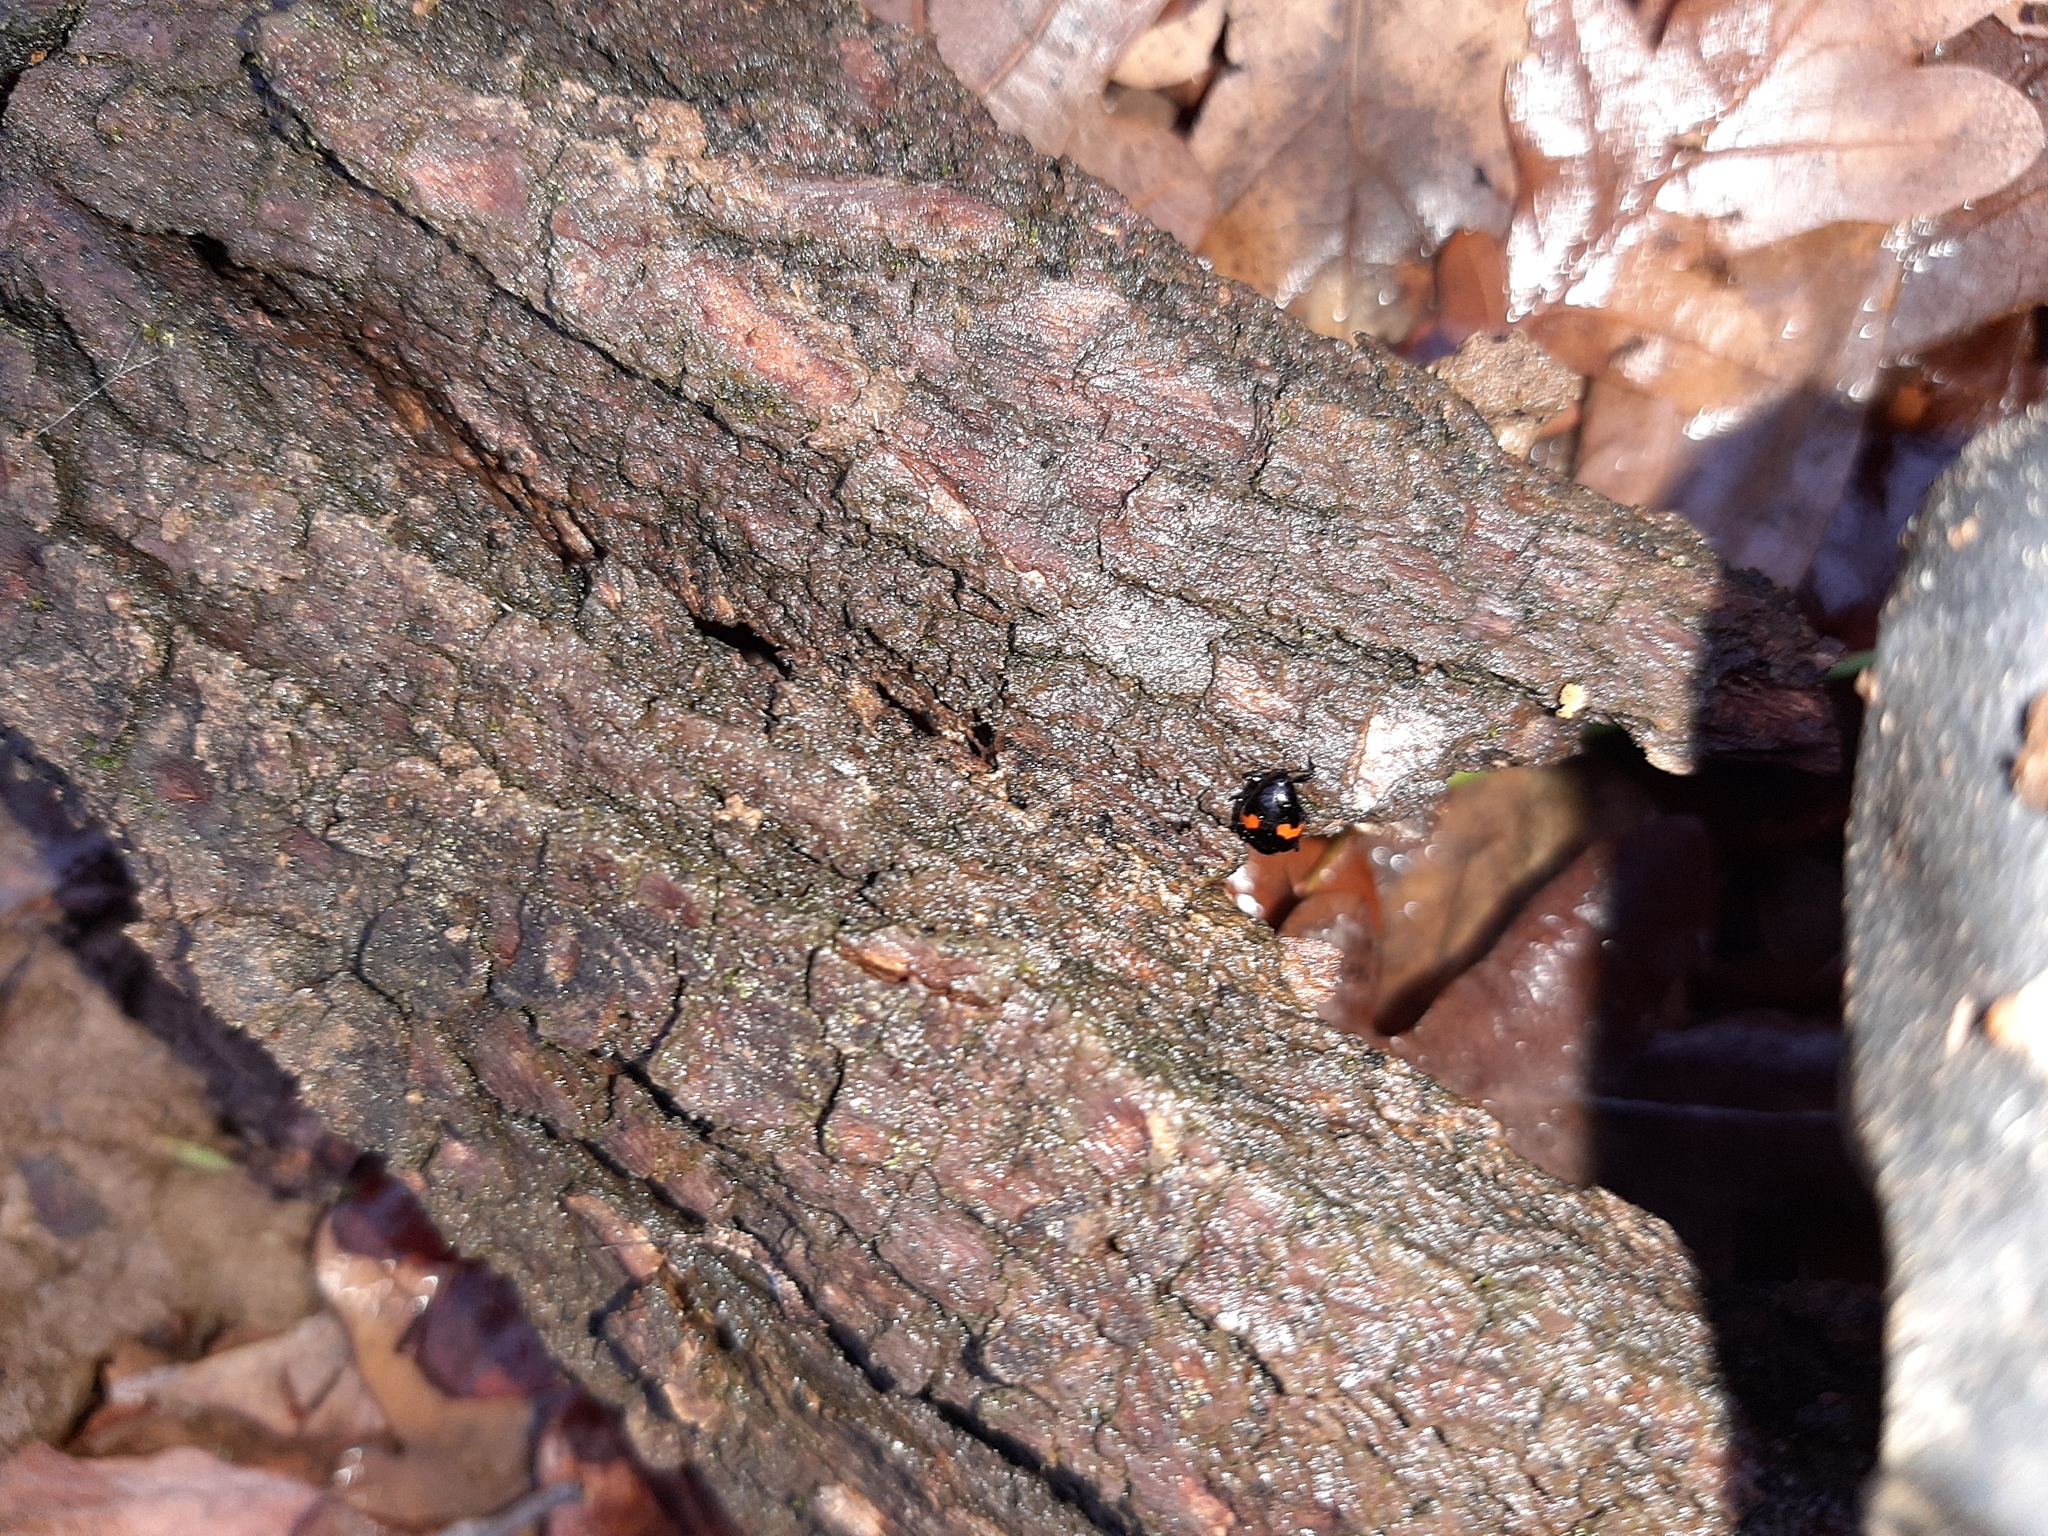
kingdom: Animalia
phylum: Arthropoda
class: Insecta
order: Coleoptera
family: Staphylinidae
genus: Scaphidium
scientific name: Scaphidium quadrimaculatum
